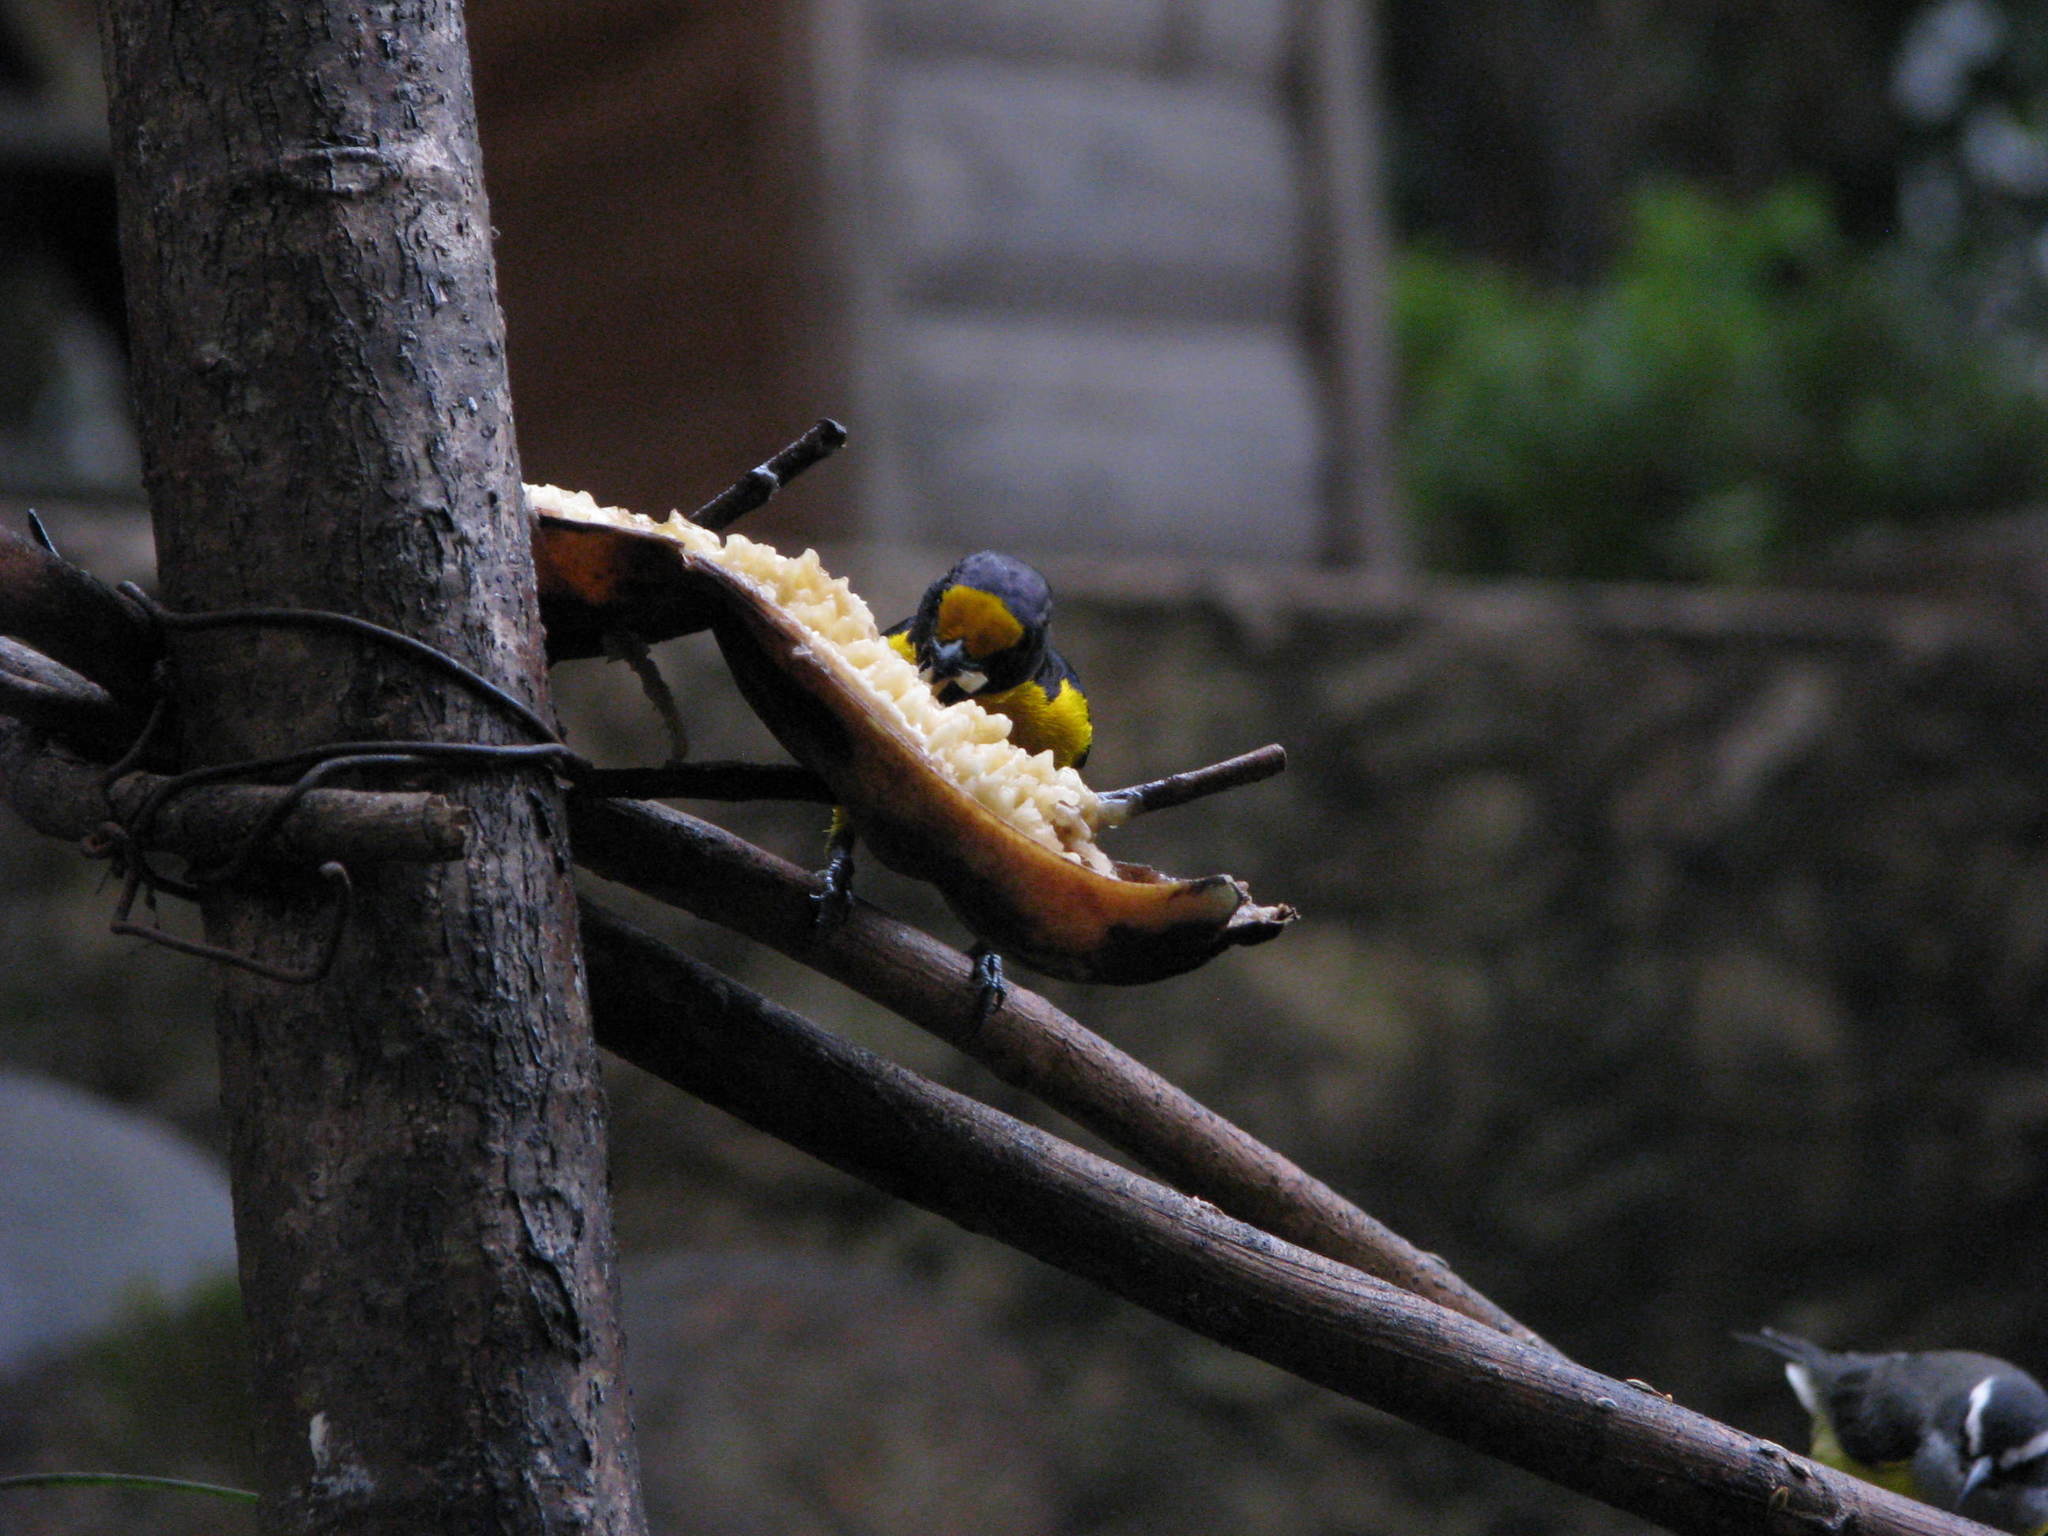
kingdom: Animalia
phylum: Chordata
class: Aves
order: Passeriformes
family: Fringillidae
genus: Euphonia
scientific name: Euphonia chlorotica
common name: Purple-throated euphonia
